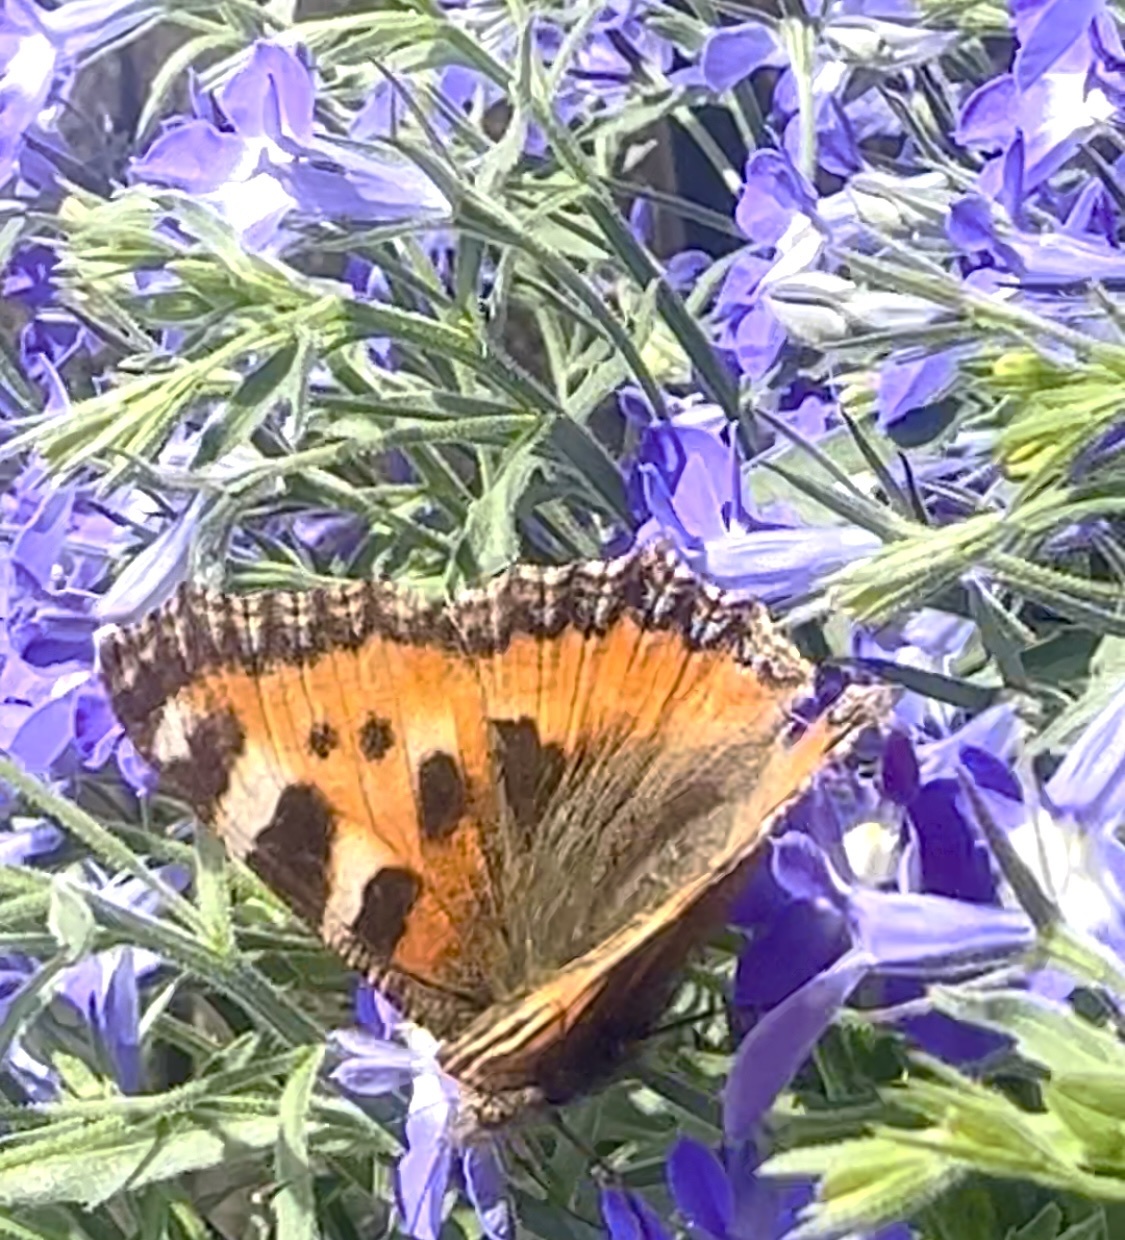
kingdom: Animalia
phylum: Arthropoda
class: Insecta
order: Lepidoptera
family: Nymphalidae
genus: Aglais
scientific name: Aglais urticae
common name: Small tortoiseshell
